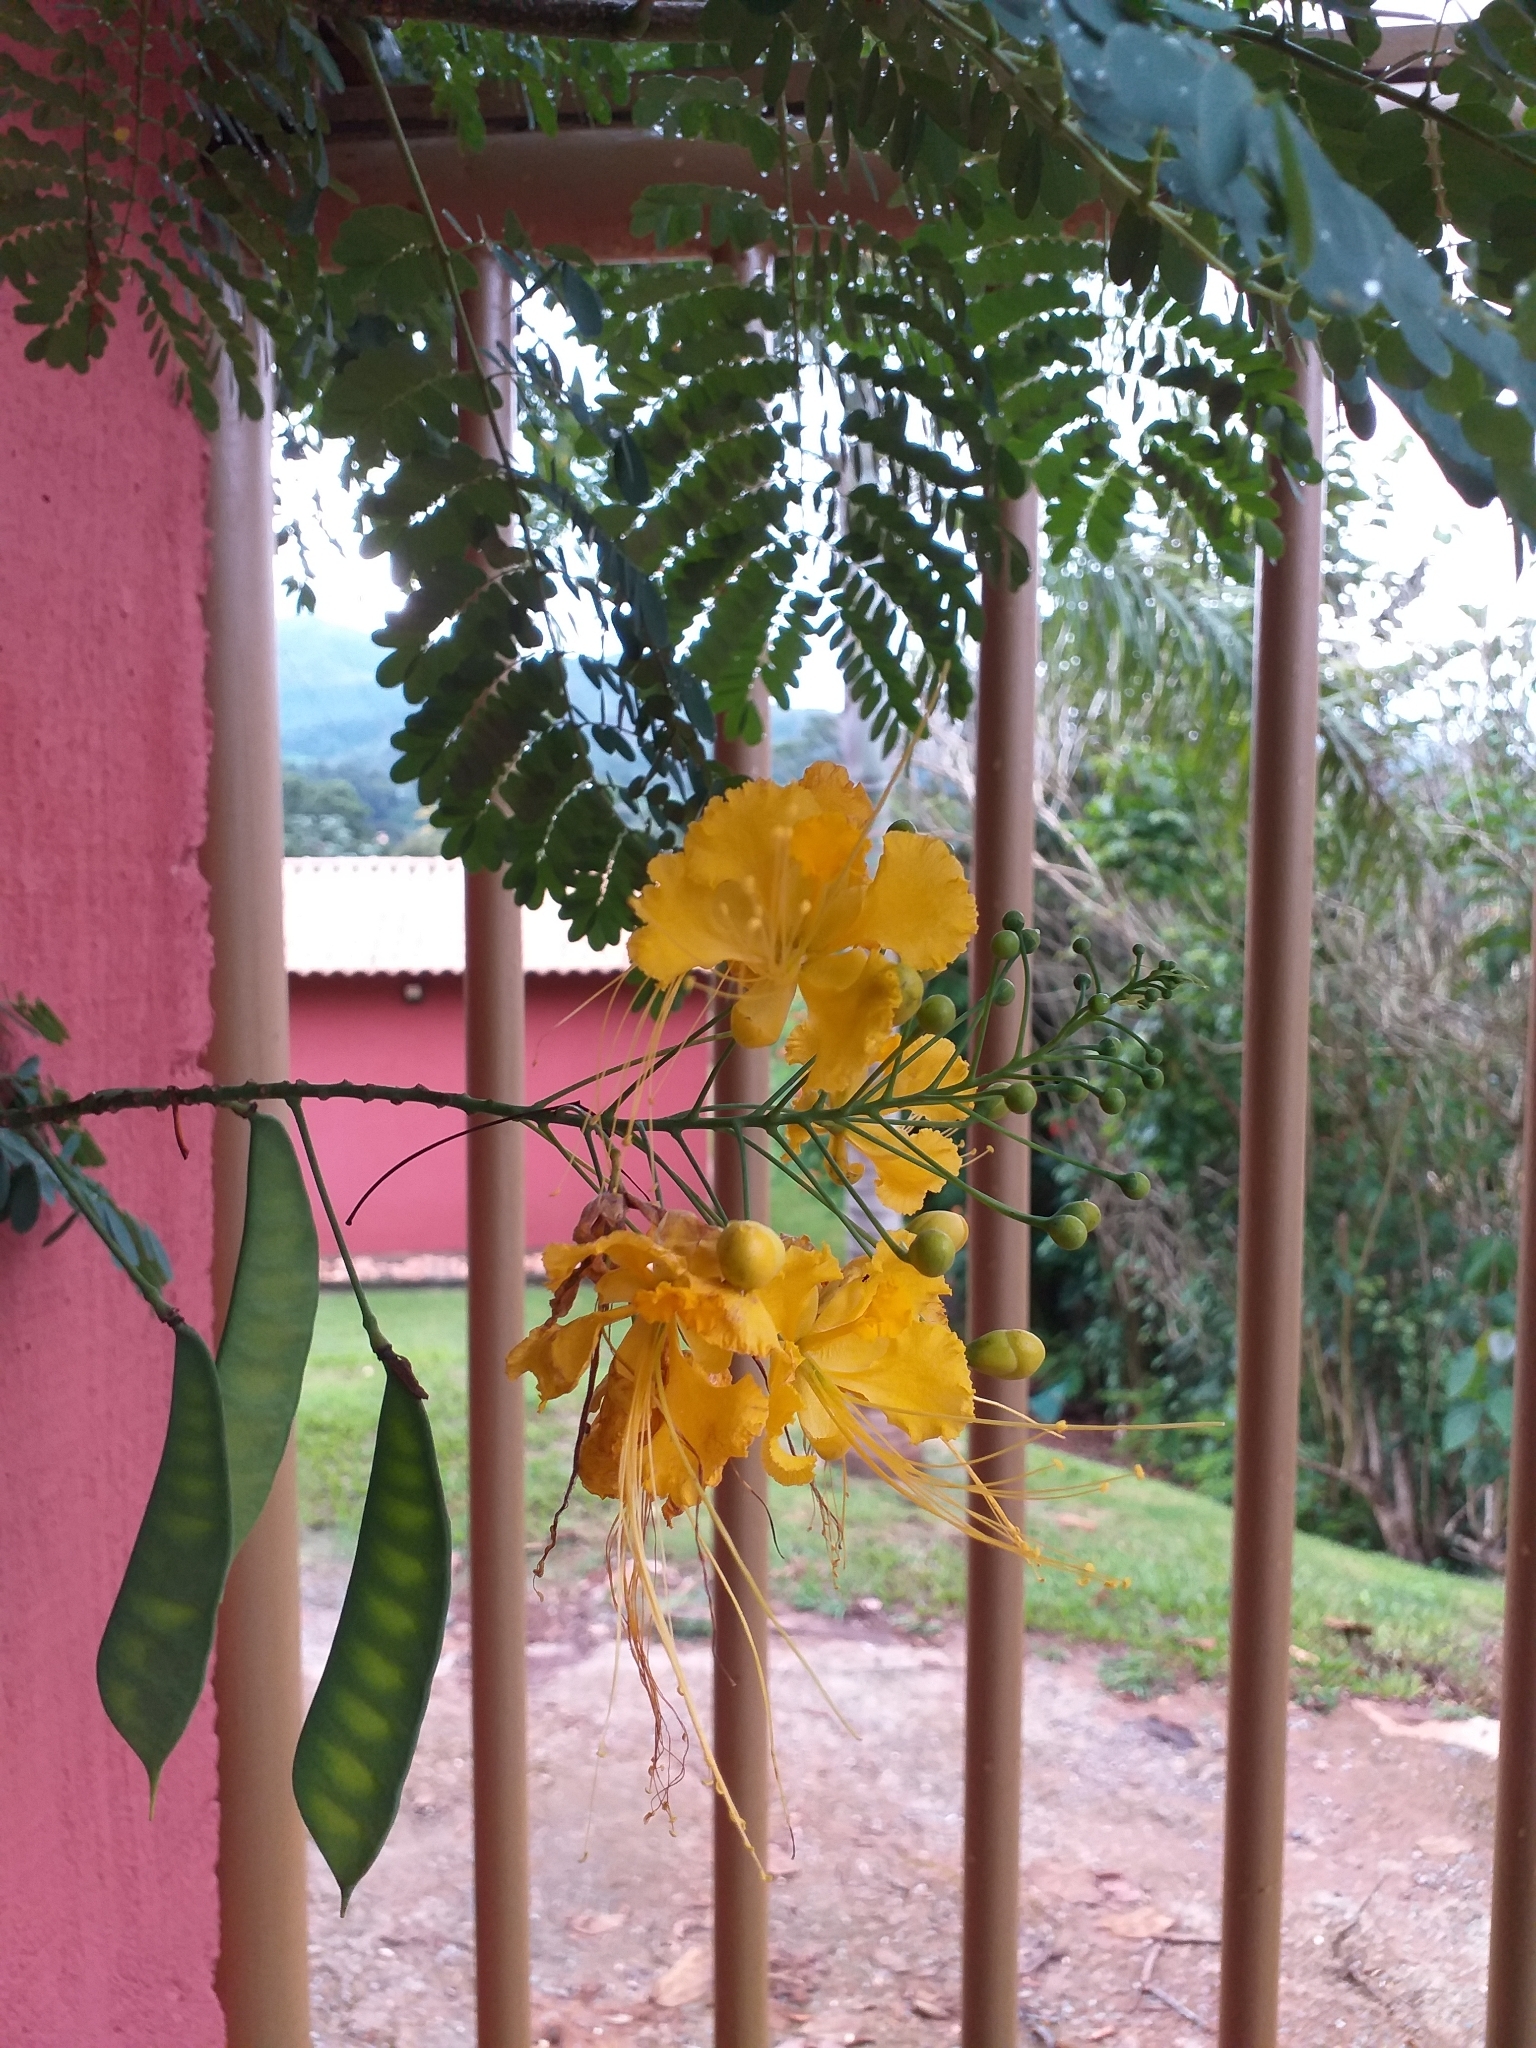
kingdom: Plantae
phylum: Tracheophyta
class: Magnoliopsida
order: Fabales
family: Fabaceae
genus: Caesalpinia
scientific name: Caesalpinia pulcherrima
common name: Pride-of-barbados
